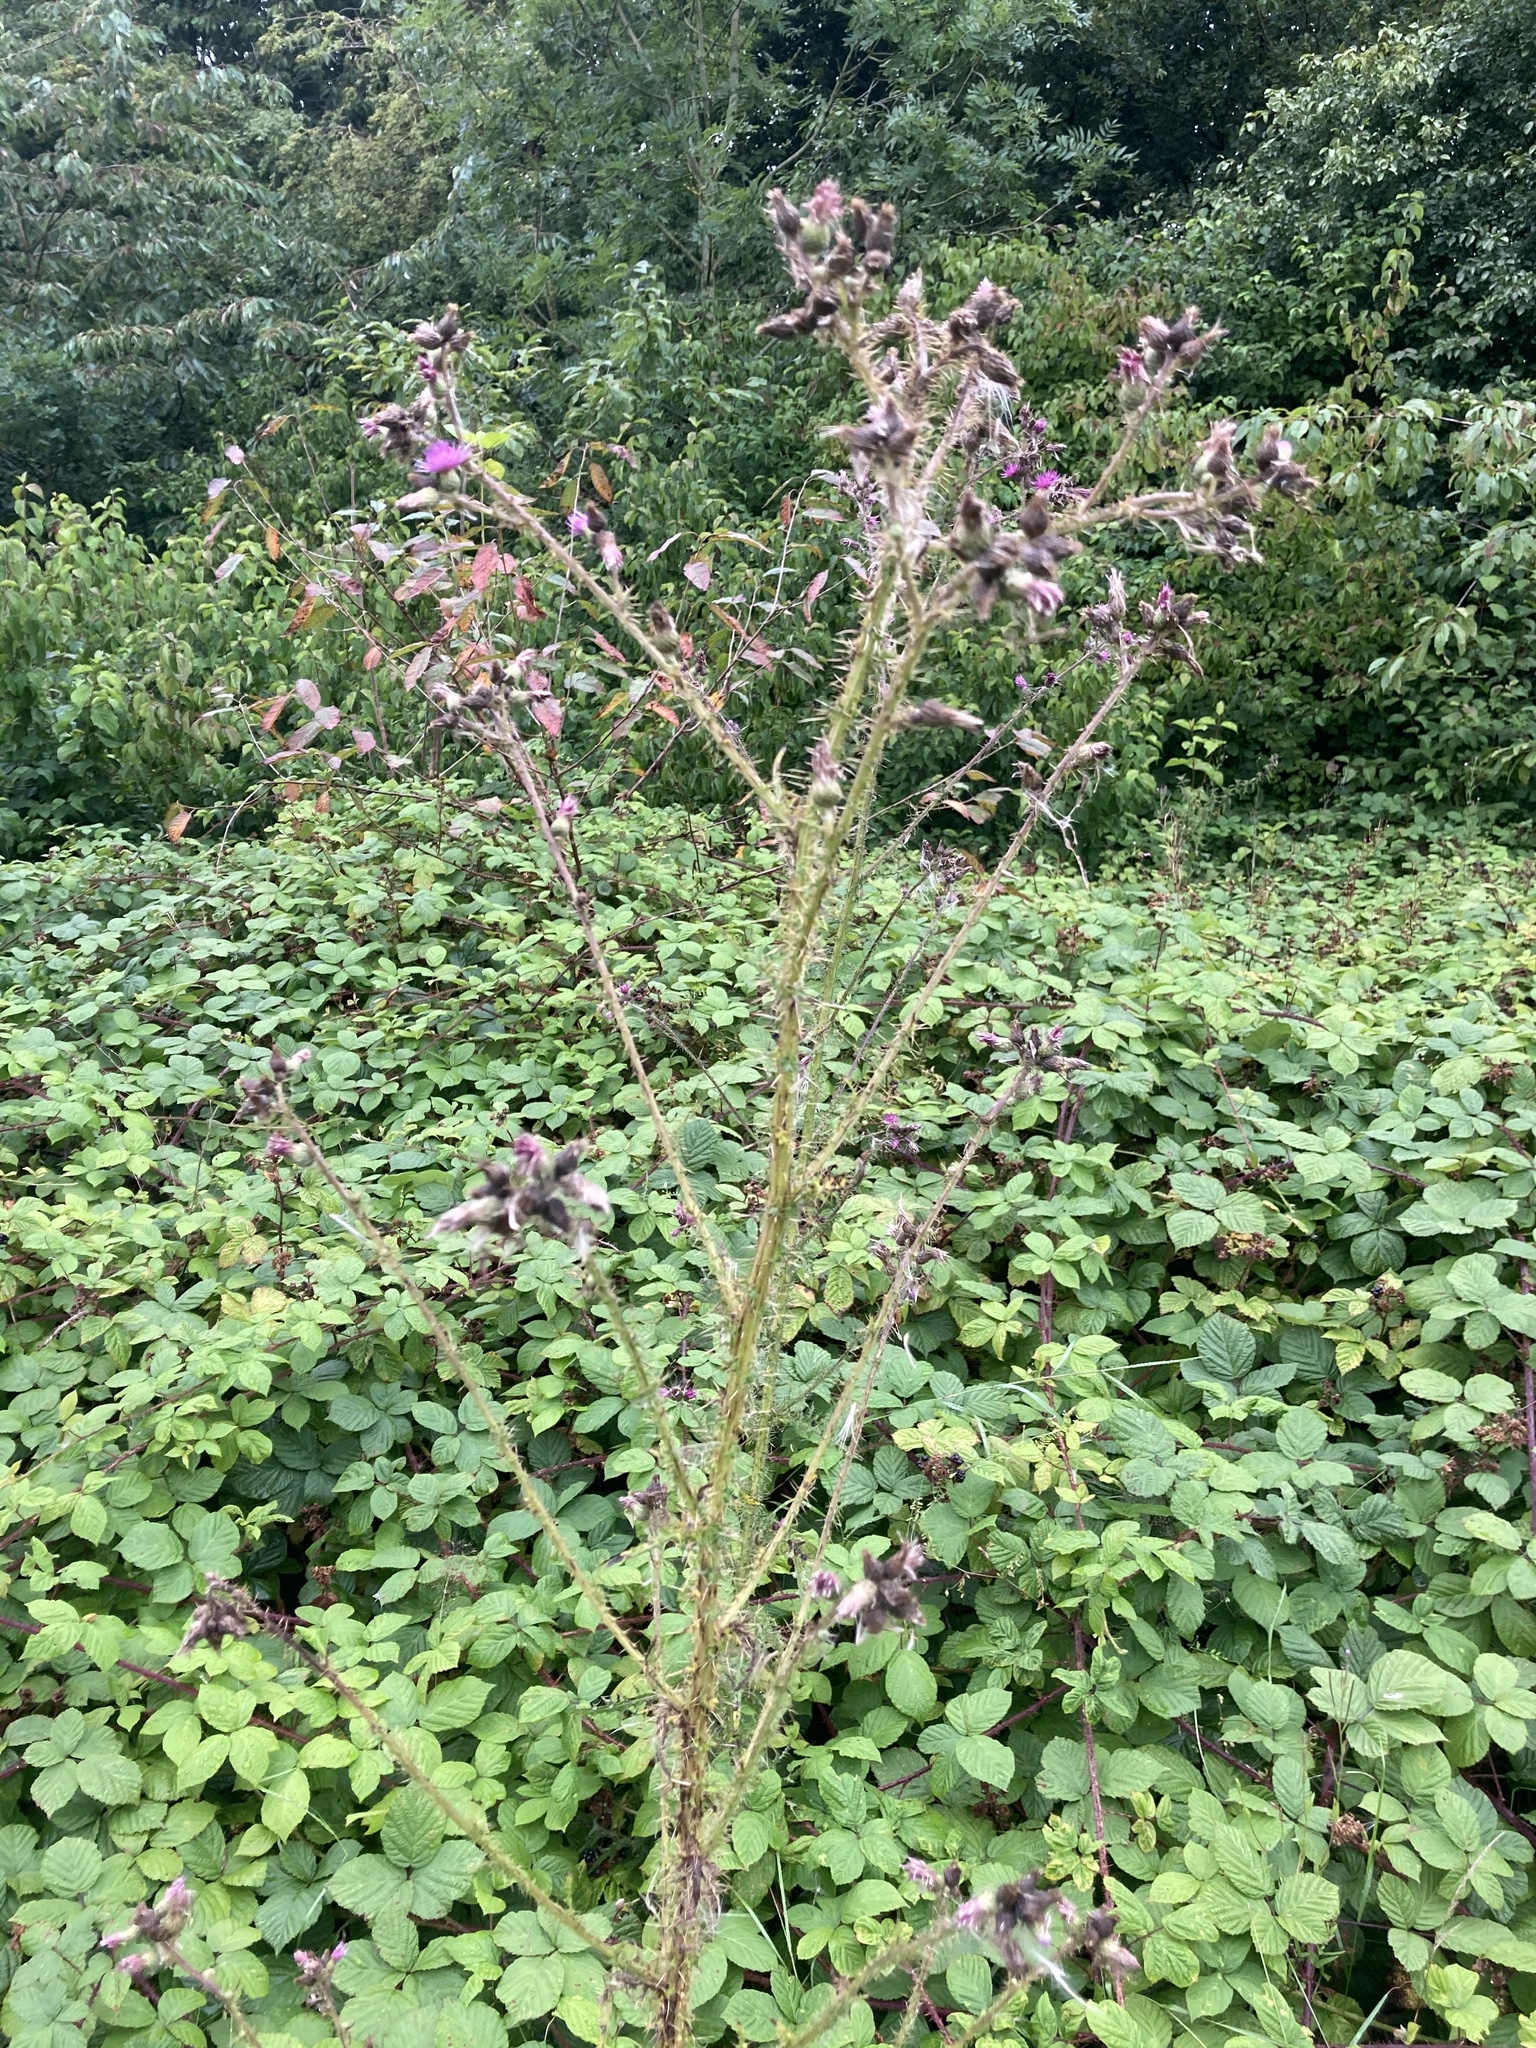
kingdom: Plantae
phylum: Tracheophyta
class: Magnoliopsida
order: Asterales
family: Asteraceae
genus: Cirsium
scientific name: Cirsium palustre
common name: Marsh thistle
